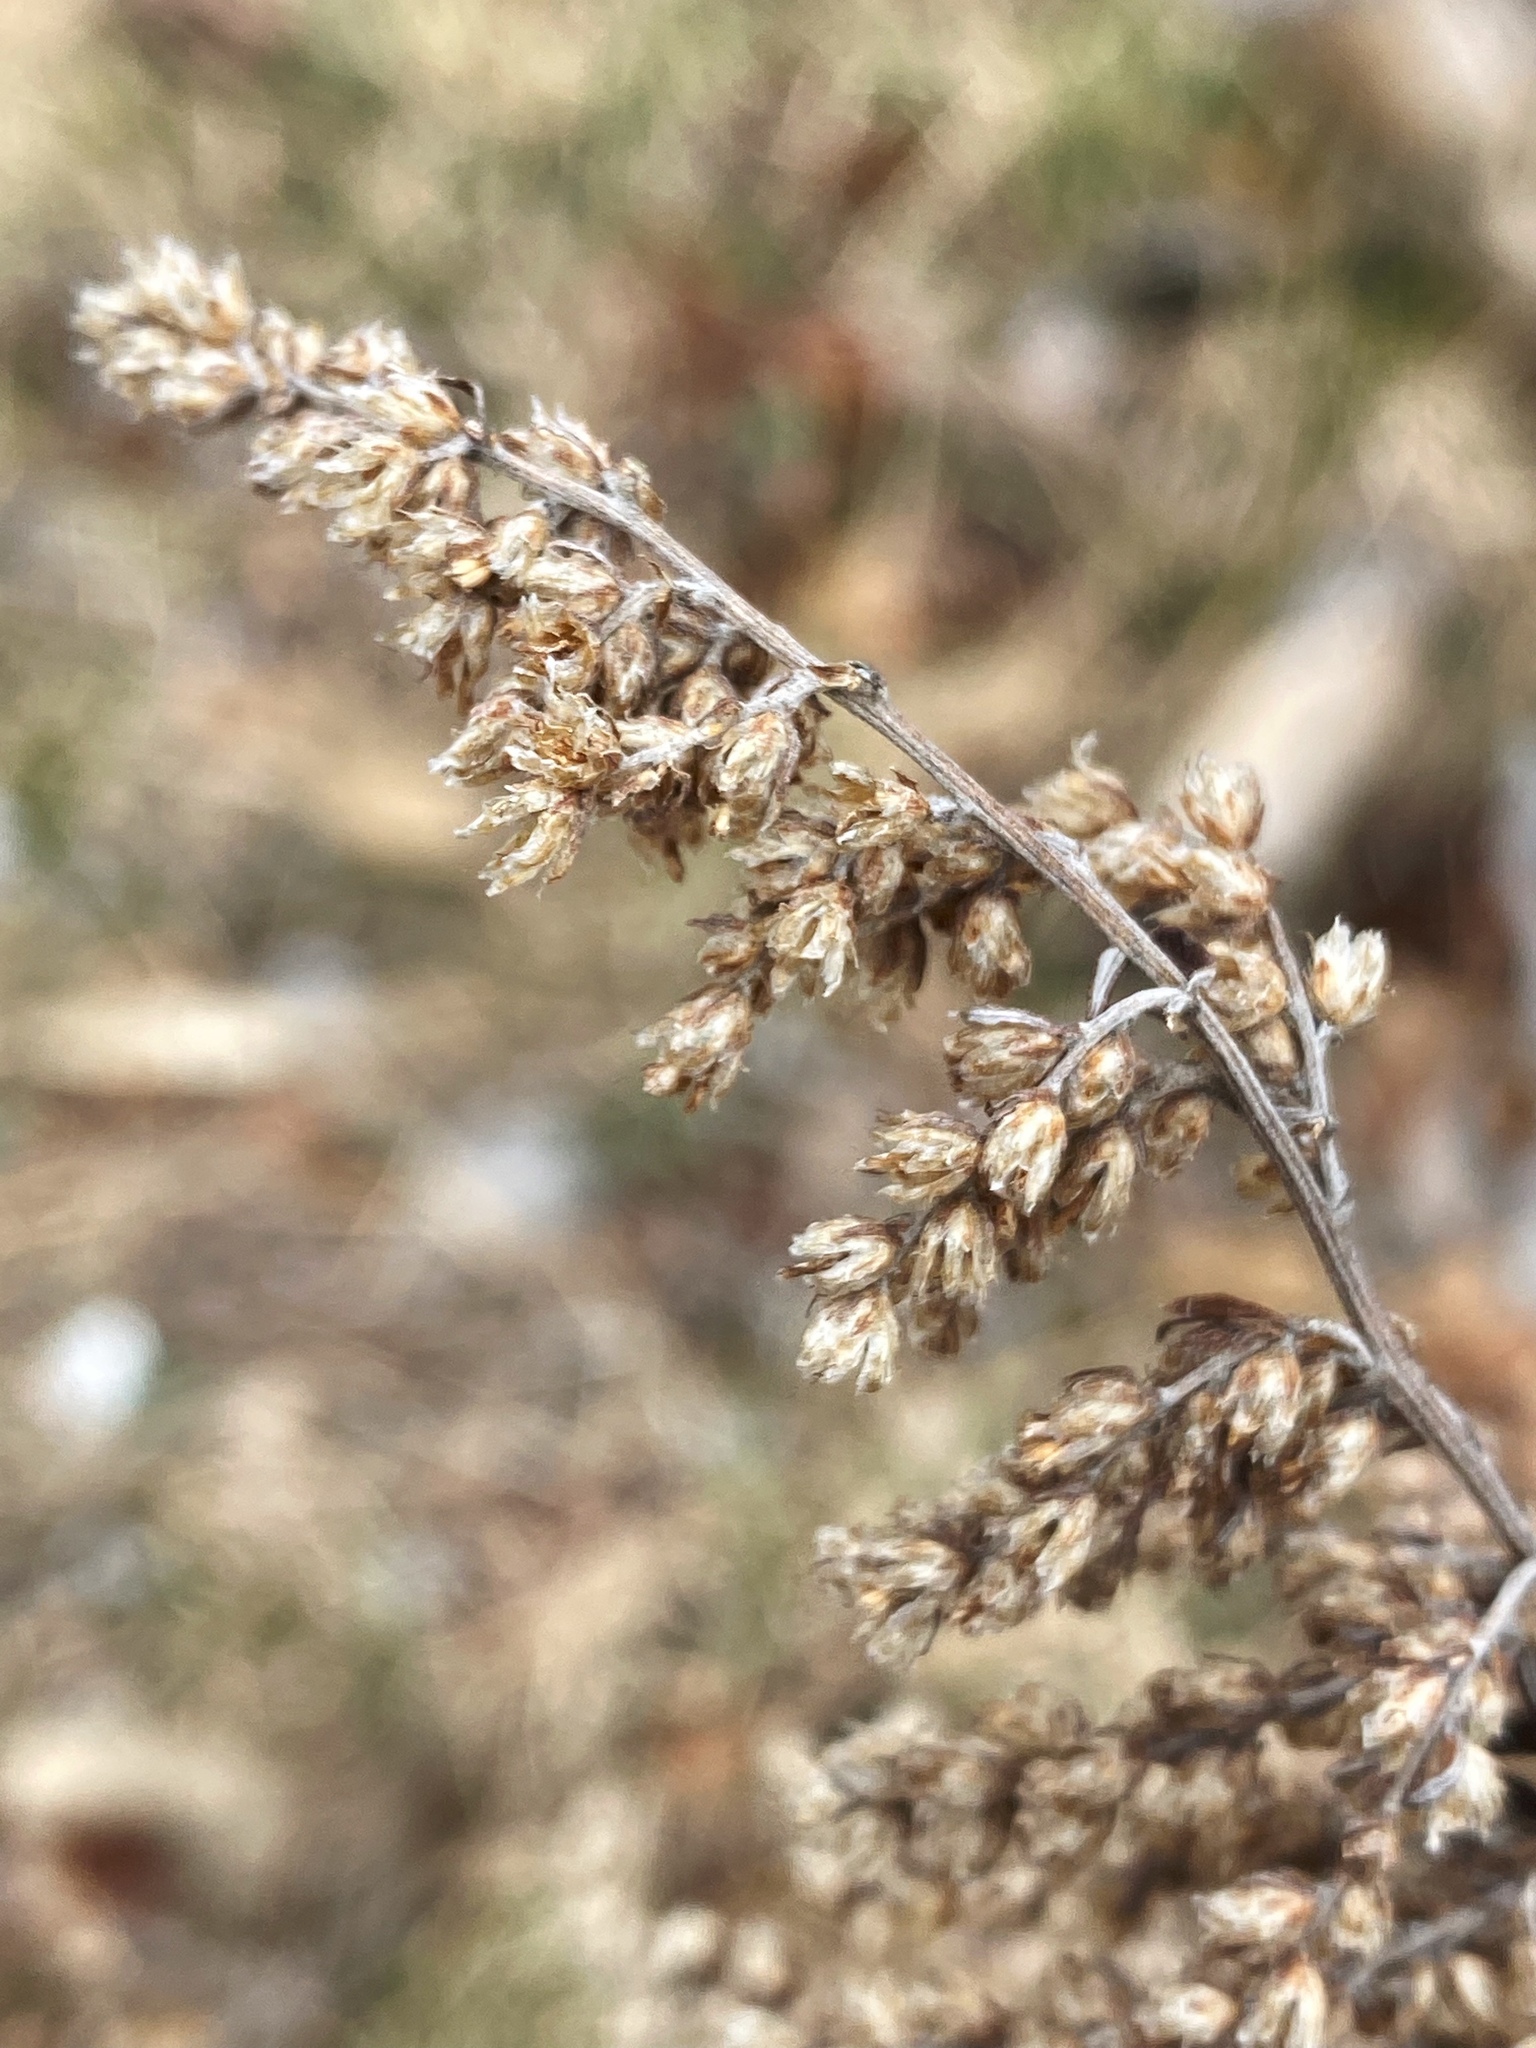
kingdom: Plantae
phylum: Tracheophyta
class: Magnoliopsida
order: Asterales
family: Asteraceae
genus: Artemisia
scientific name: Artemisia vulgaris
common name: Mugwort
